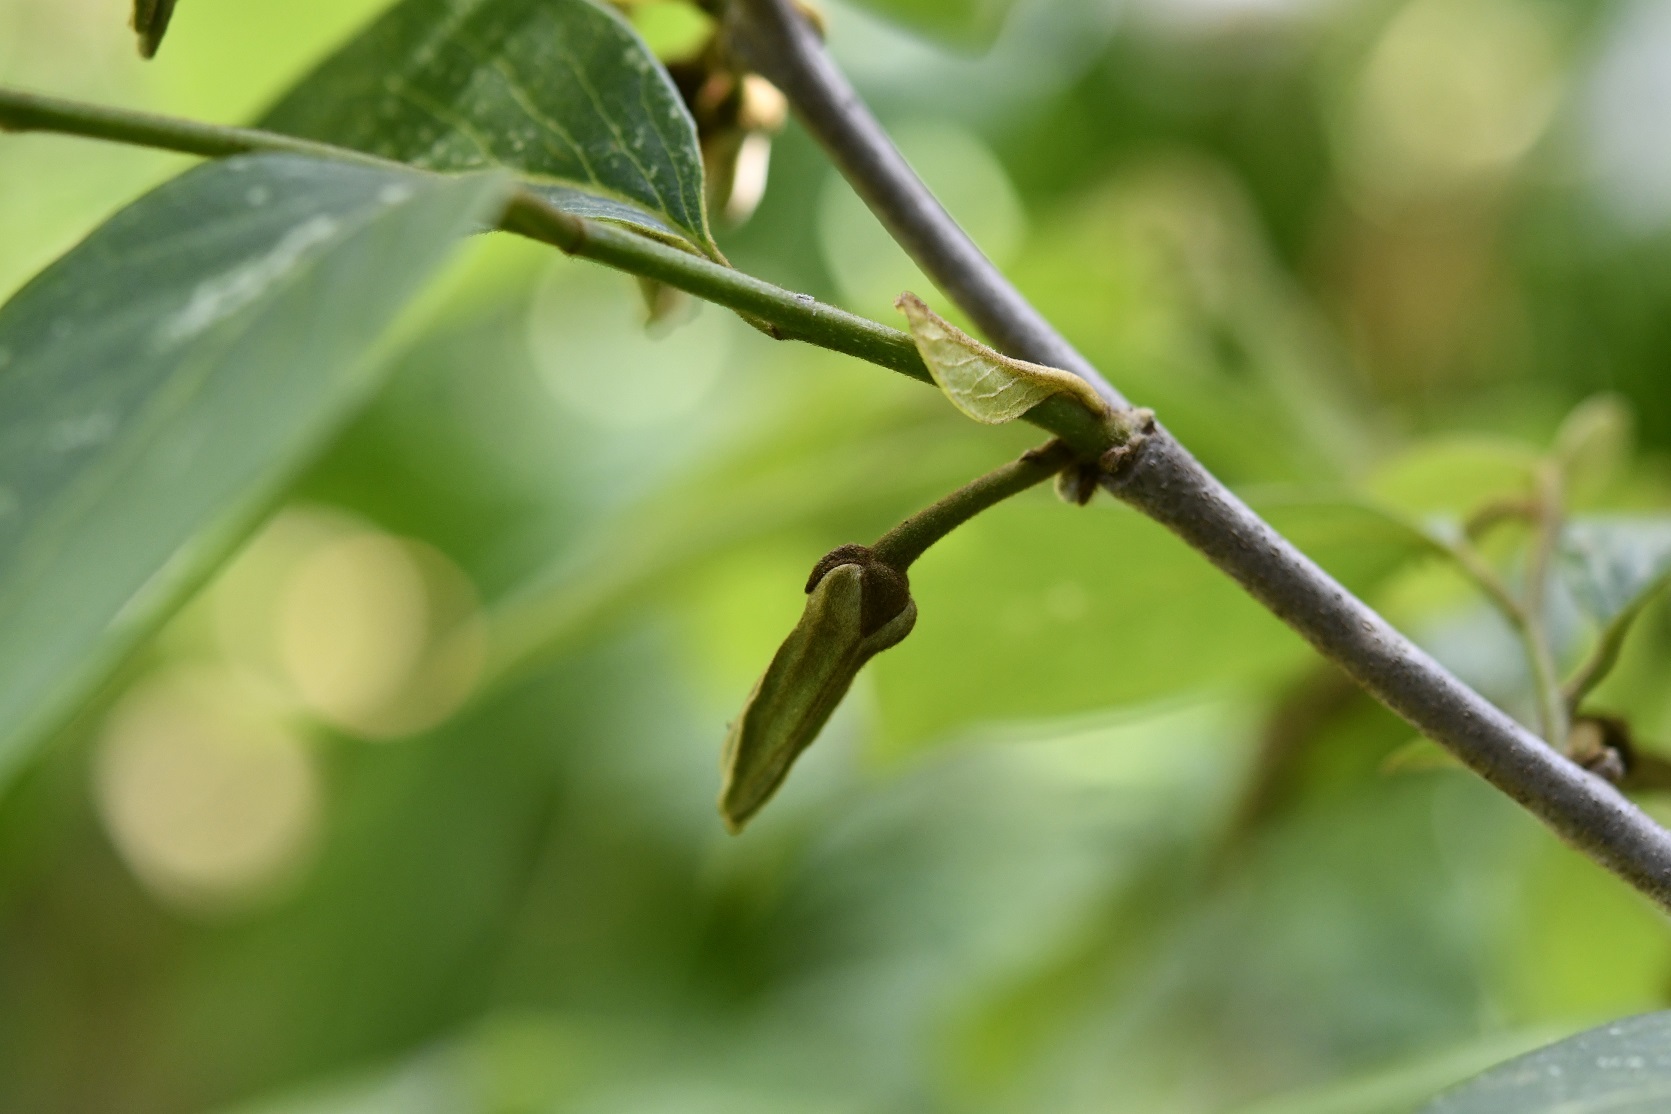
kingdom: Plantae
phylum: Tracheophyta
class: Magnoliopsida
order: Magnoliales
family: Annonaceae
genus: Annona
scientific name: Annona cherimola
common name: Cherimoya
